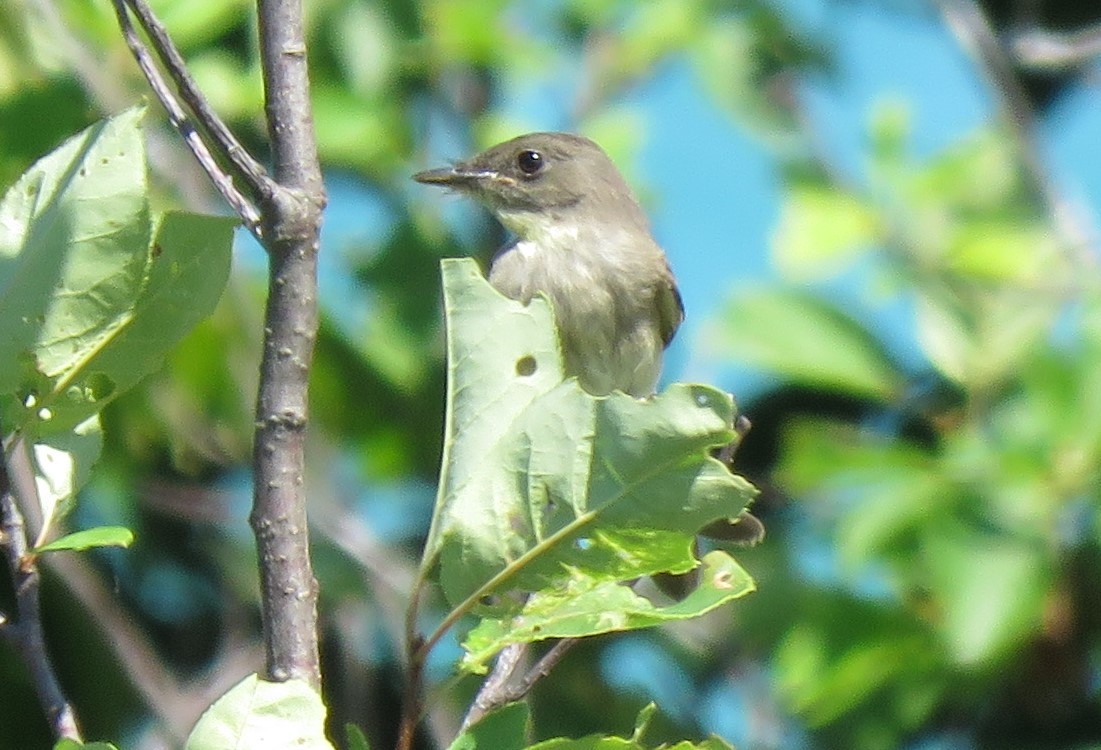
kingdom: Animalia
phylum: Chordata
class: Aves
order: Passeriformes
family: Tyrannidae
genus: Sayornis
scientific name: Sayornis phoebe
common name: Eastern phoebe
